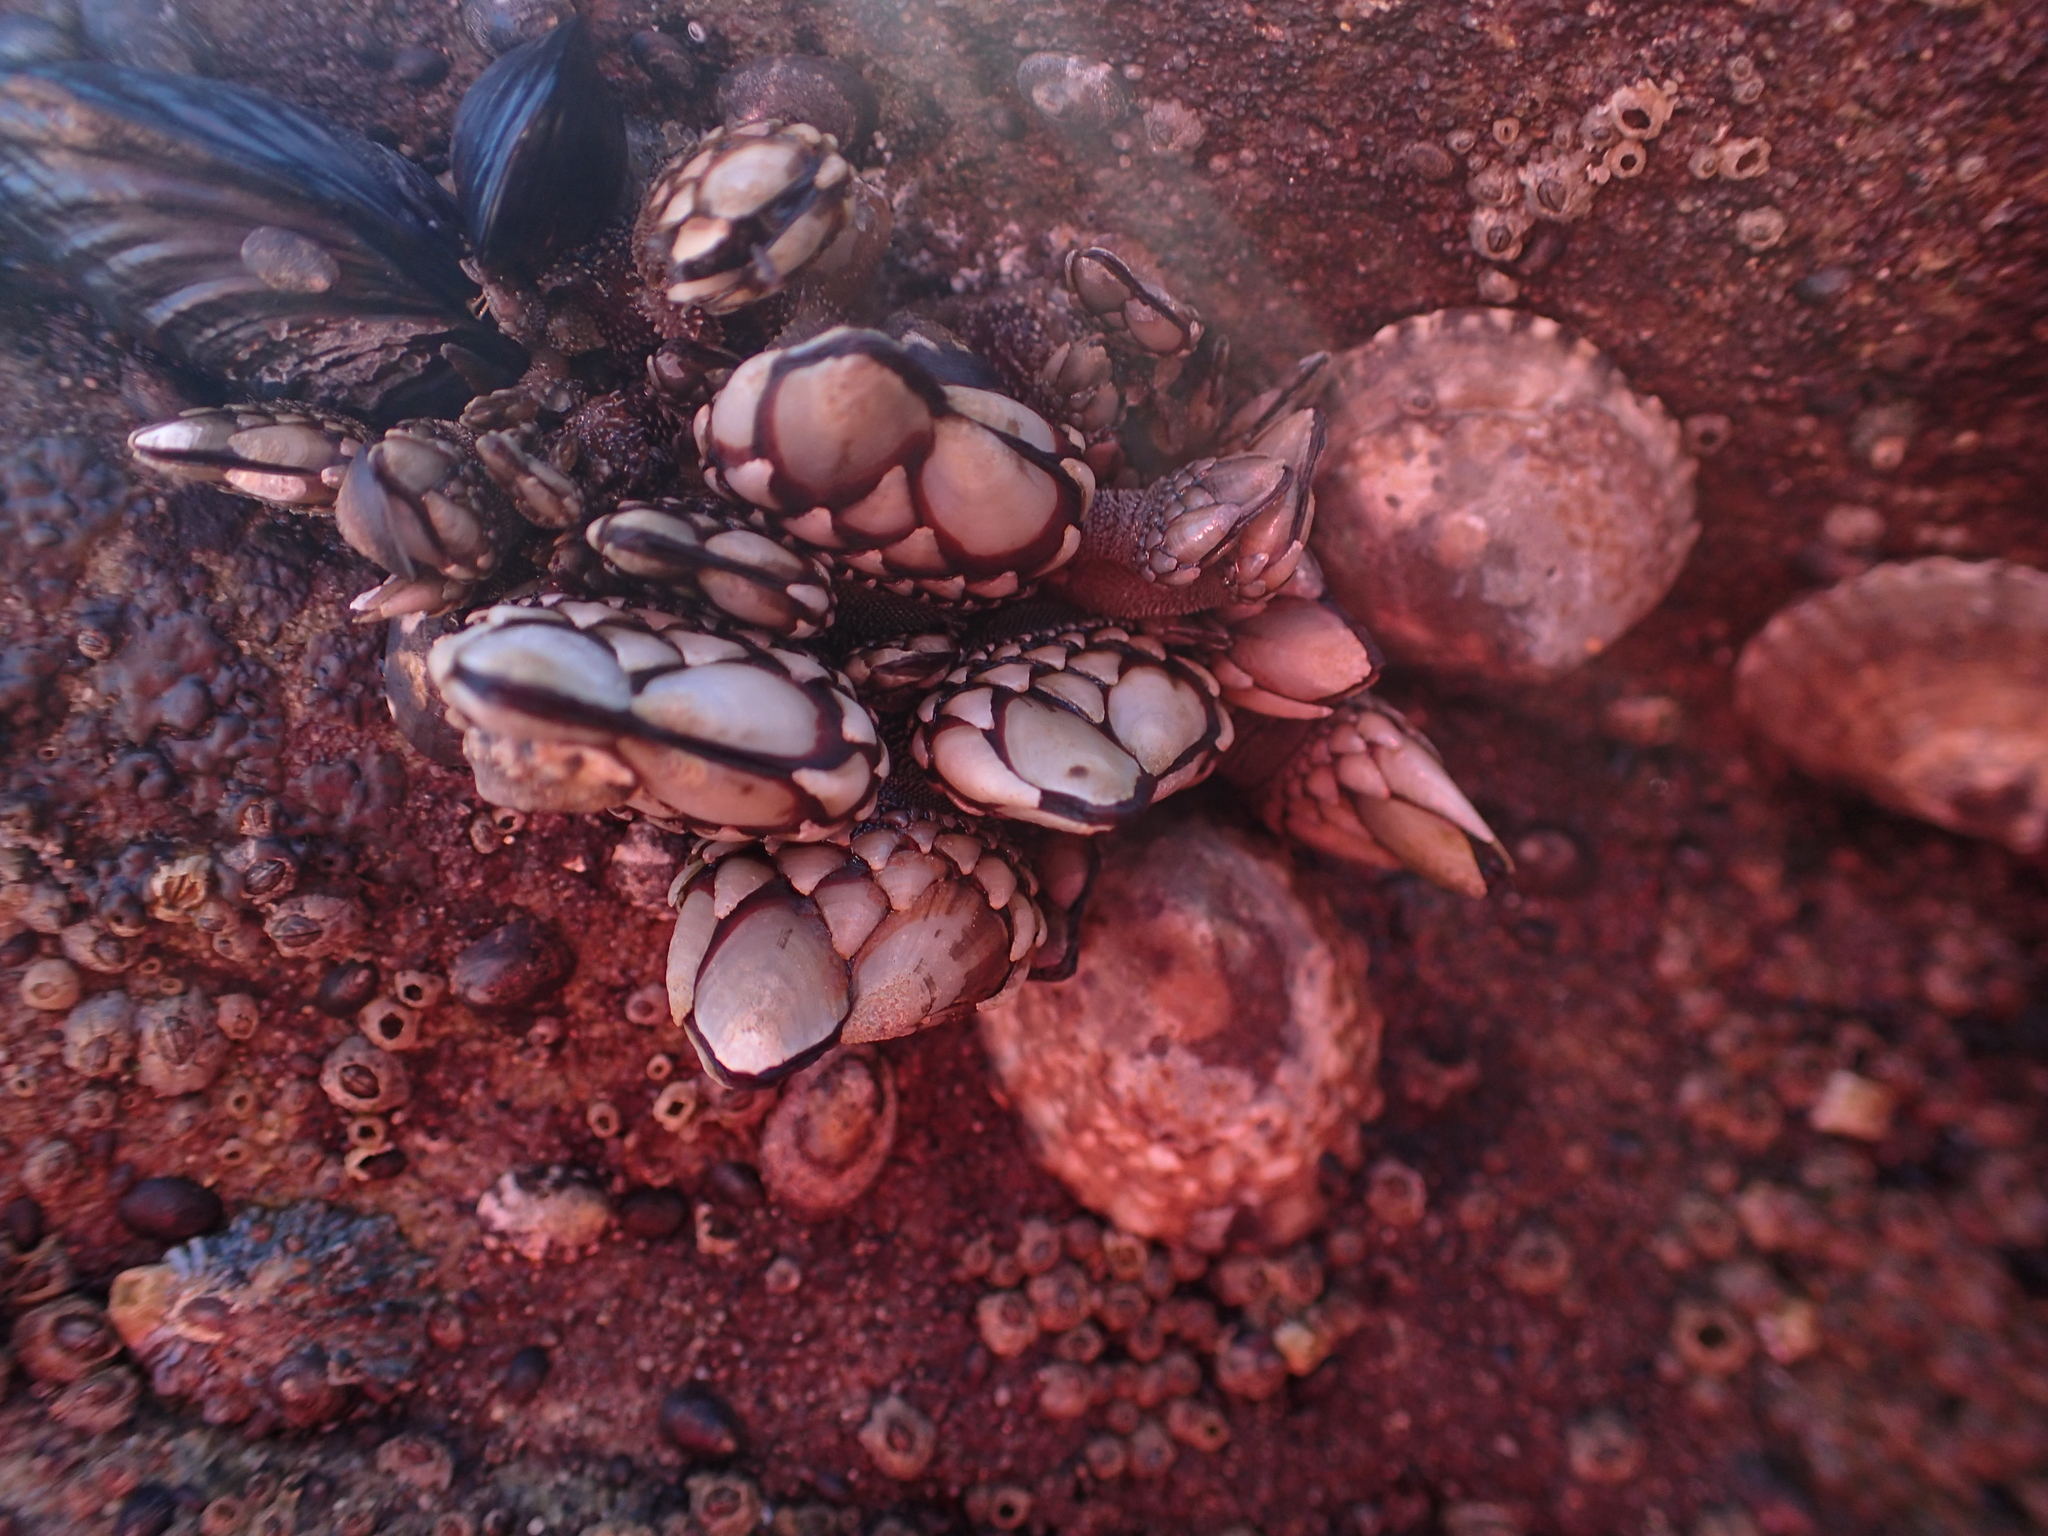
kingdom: Animalia
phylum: Arthropoda
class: Maxillopoda
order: Pedunculata
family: Pollicipedidae
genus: Pollicipes
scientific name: Pollicipes polymerus
